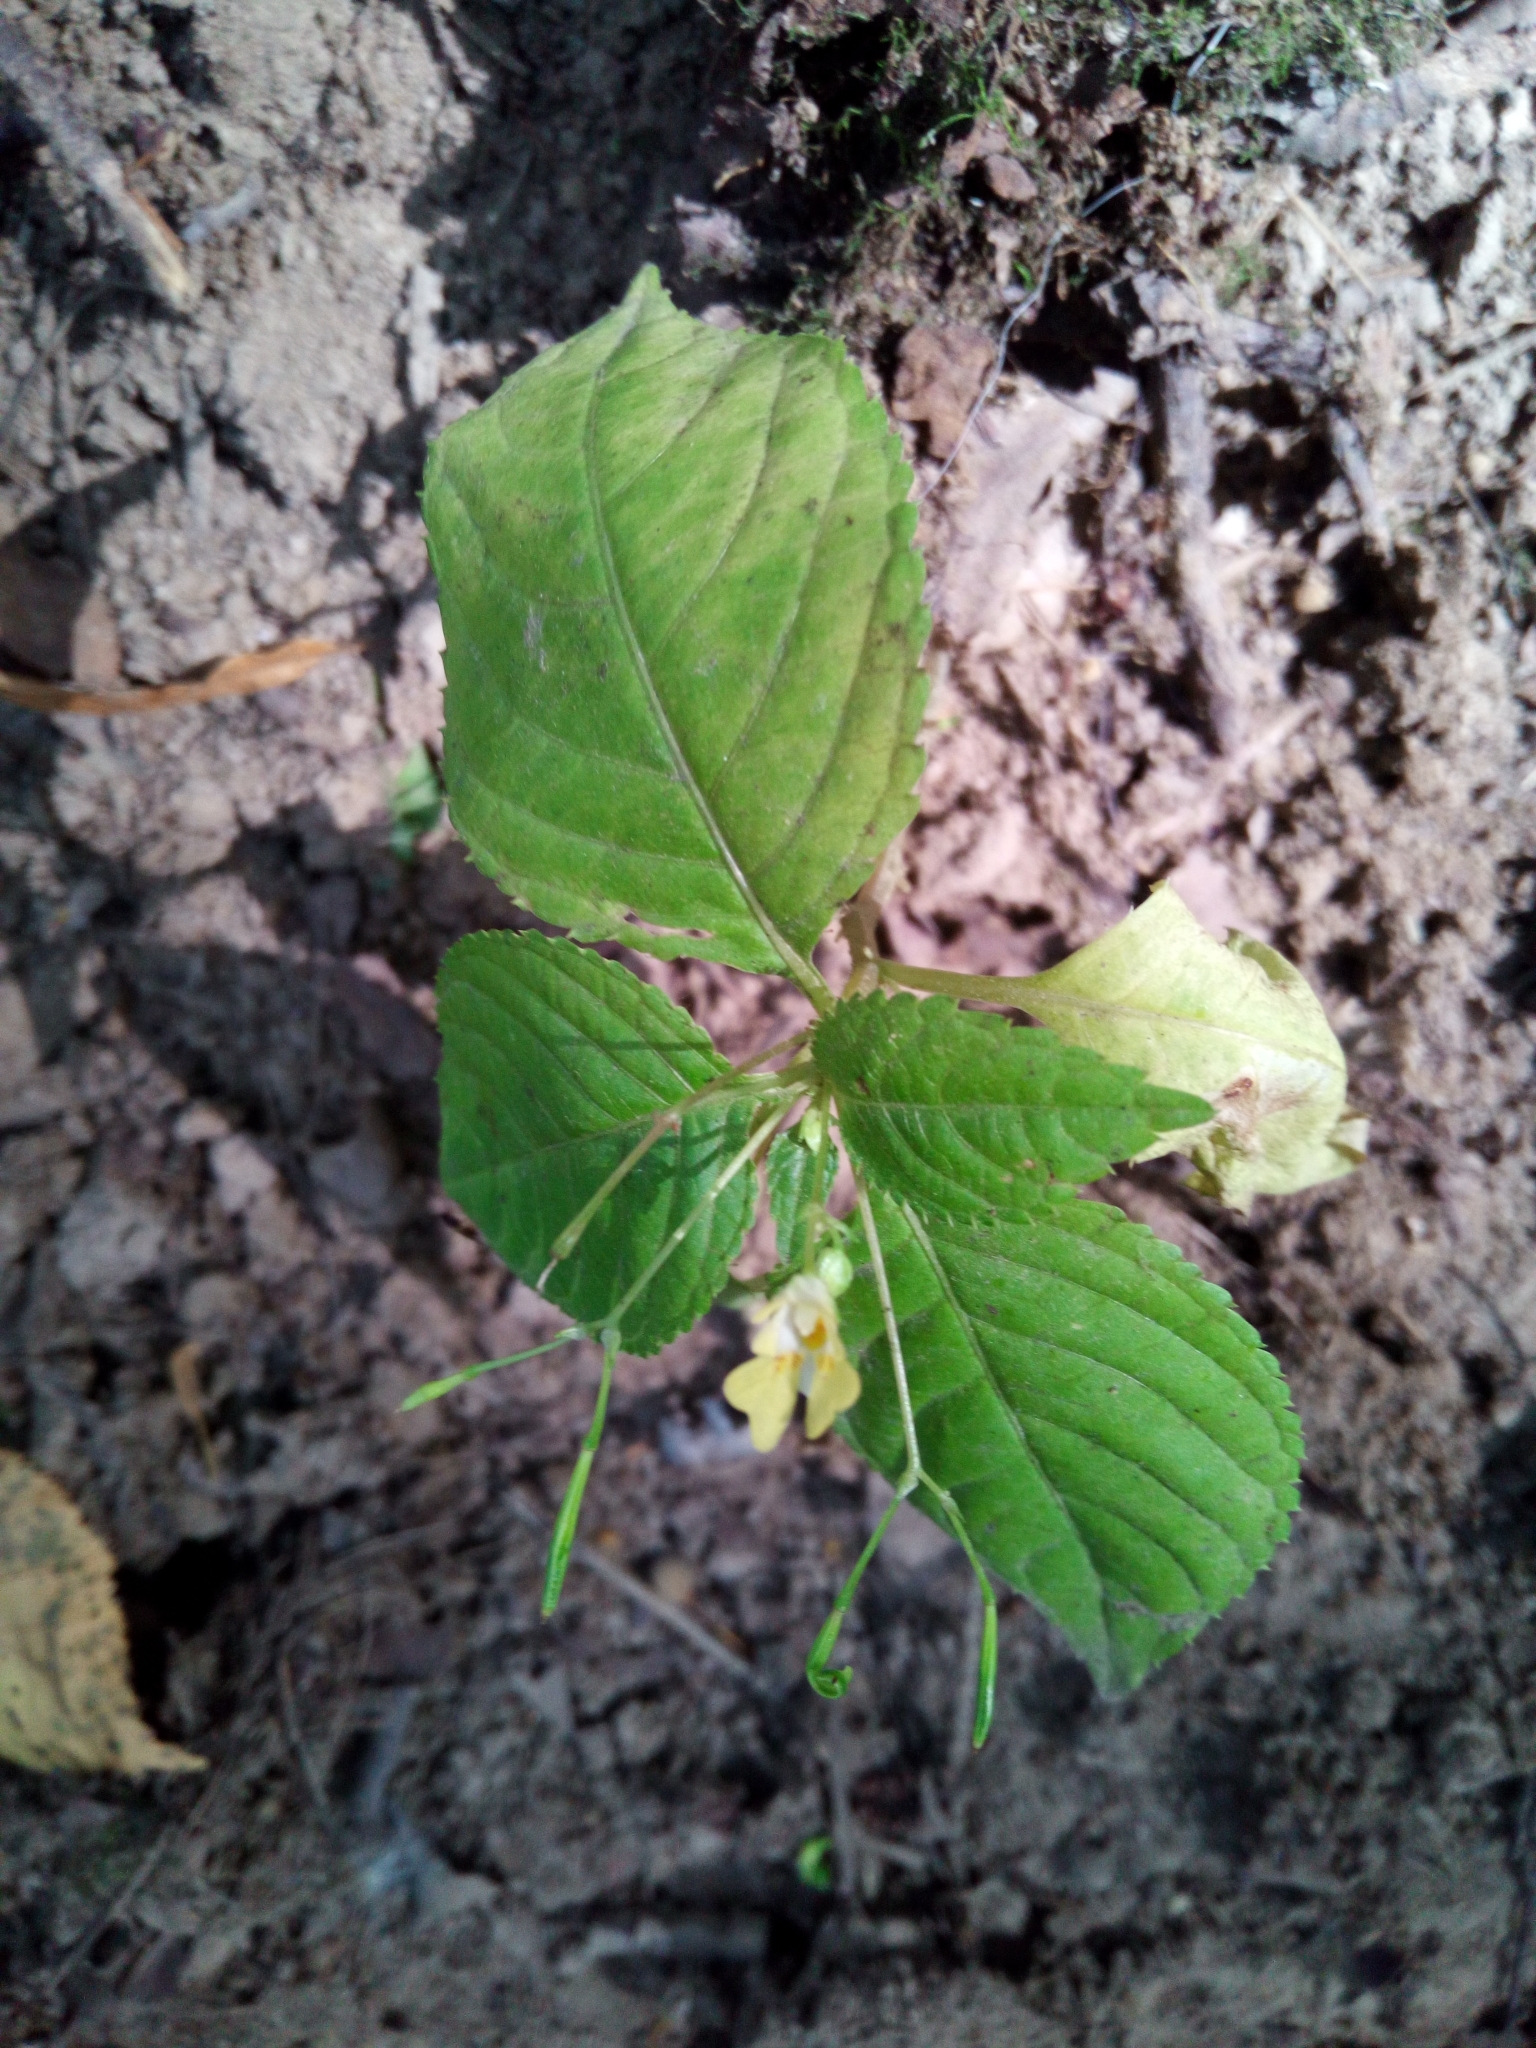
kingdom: Plantae
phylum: Tracheophyta
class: Magnoliopsida
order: Ericales
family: Balsaminaceae
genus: Impatiens
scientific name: Impatiens parviflora
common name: Small balsam
